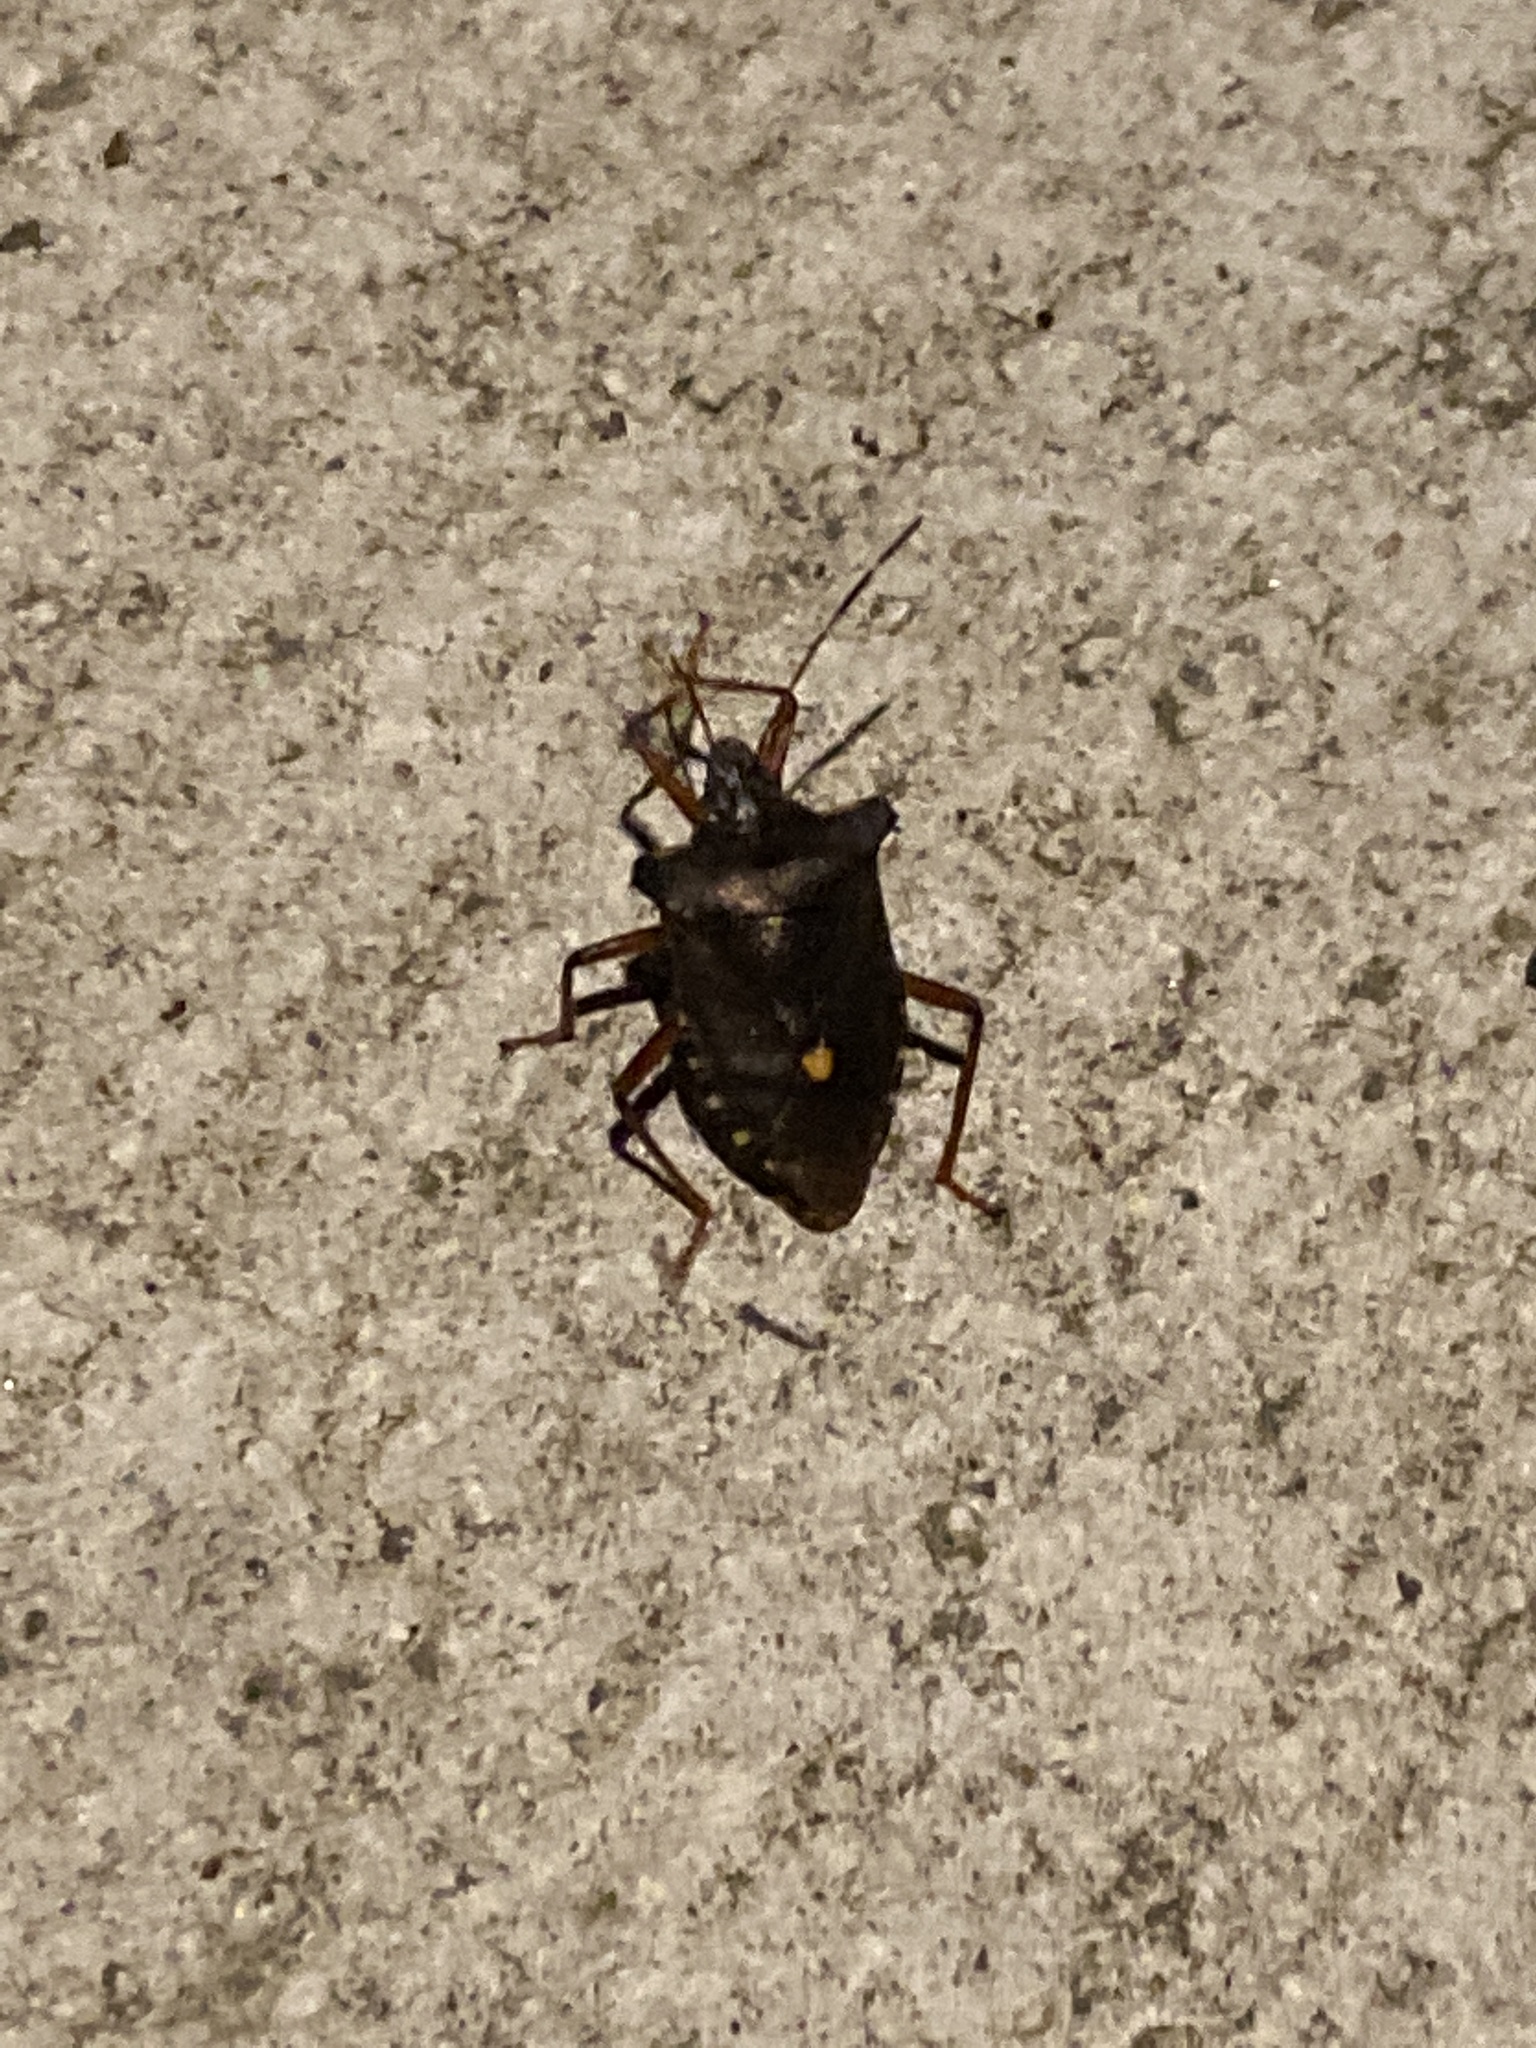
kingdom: Animalia
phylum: Arthropoda
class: Insecta
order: Hemiptera
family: Pentatomidae
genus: Pentatoma
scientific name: Pentatoma rufipes
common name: Forest bug
